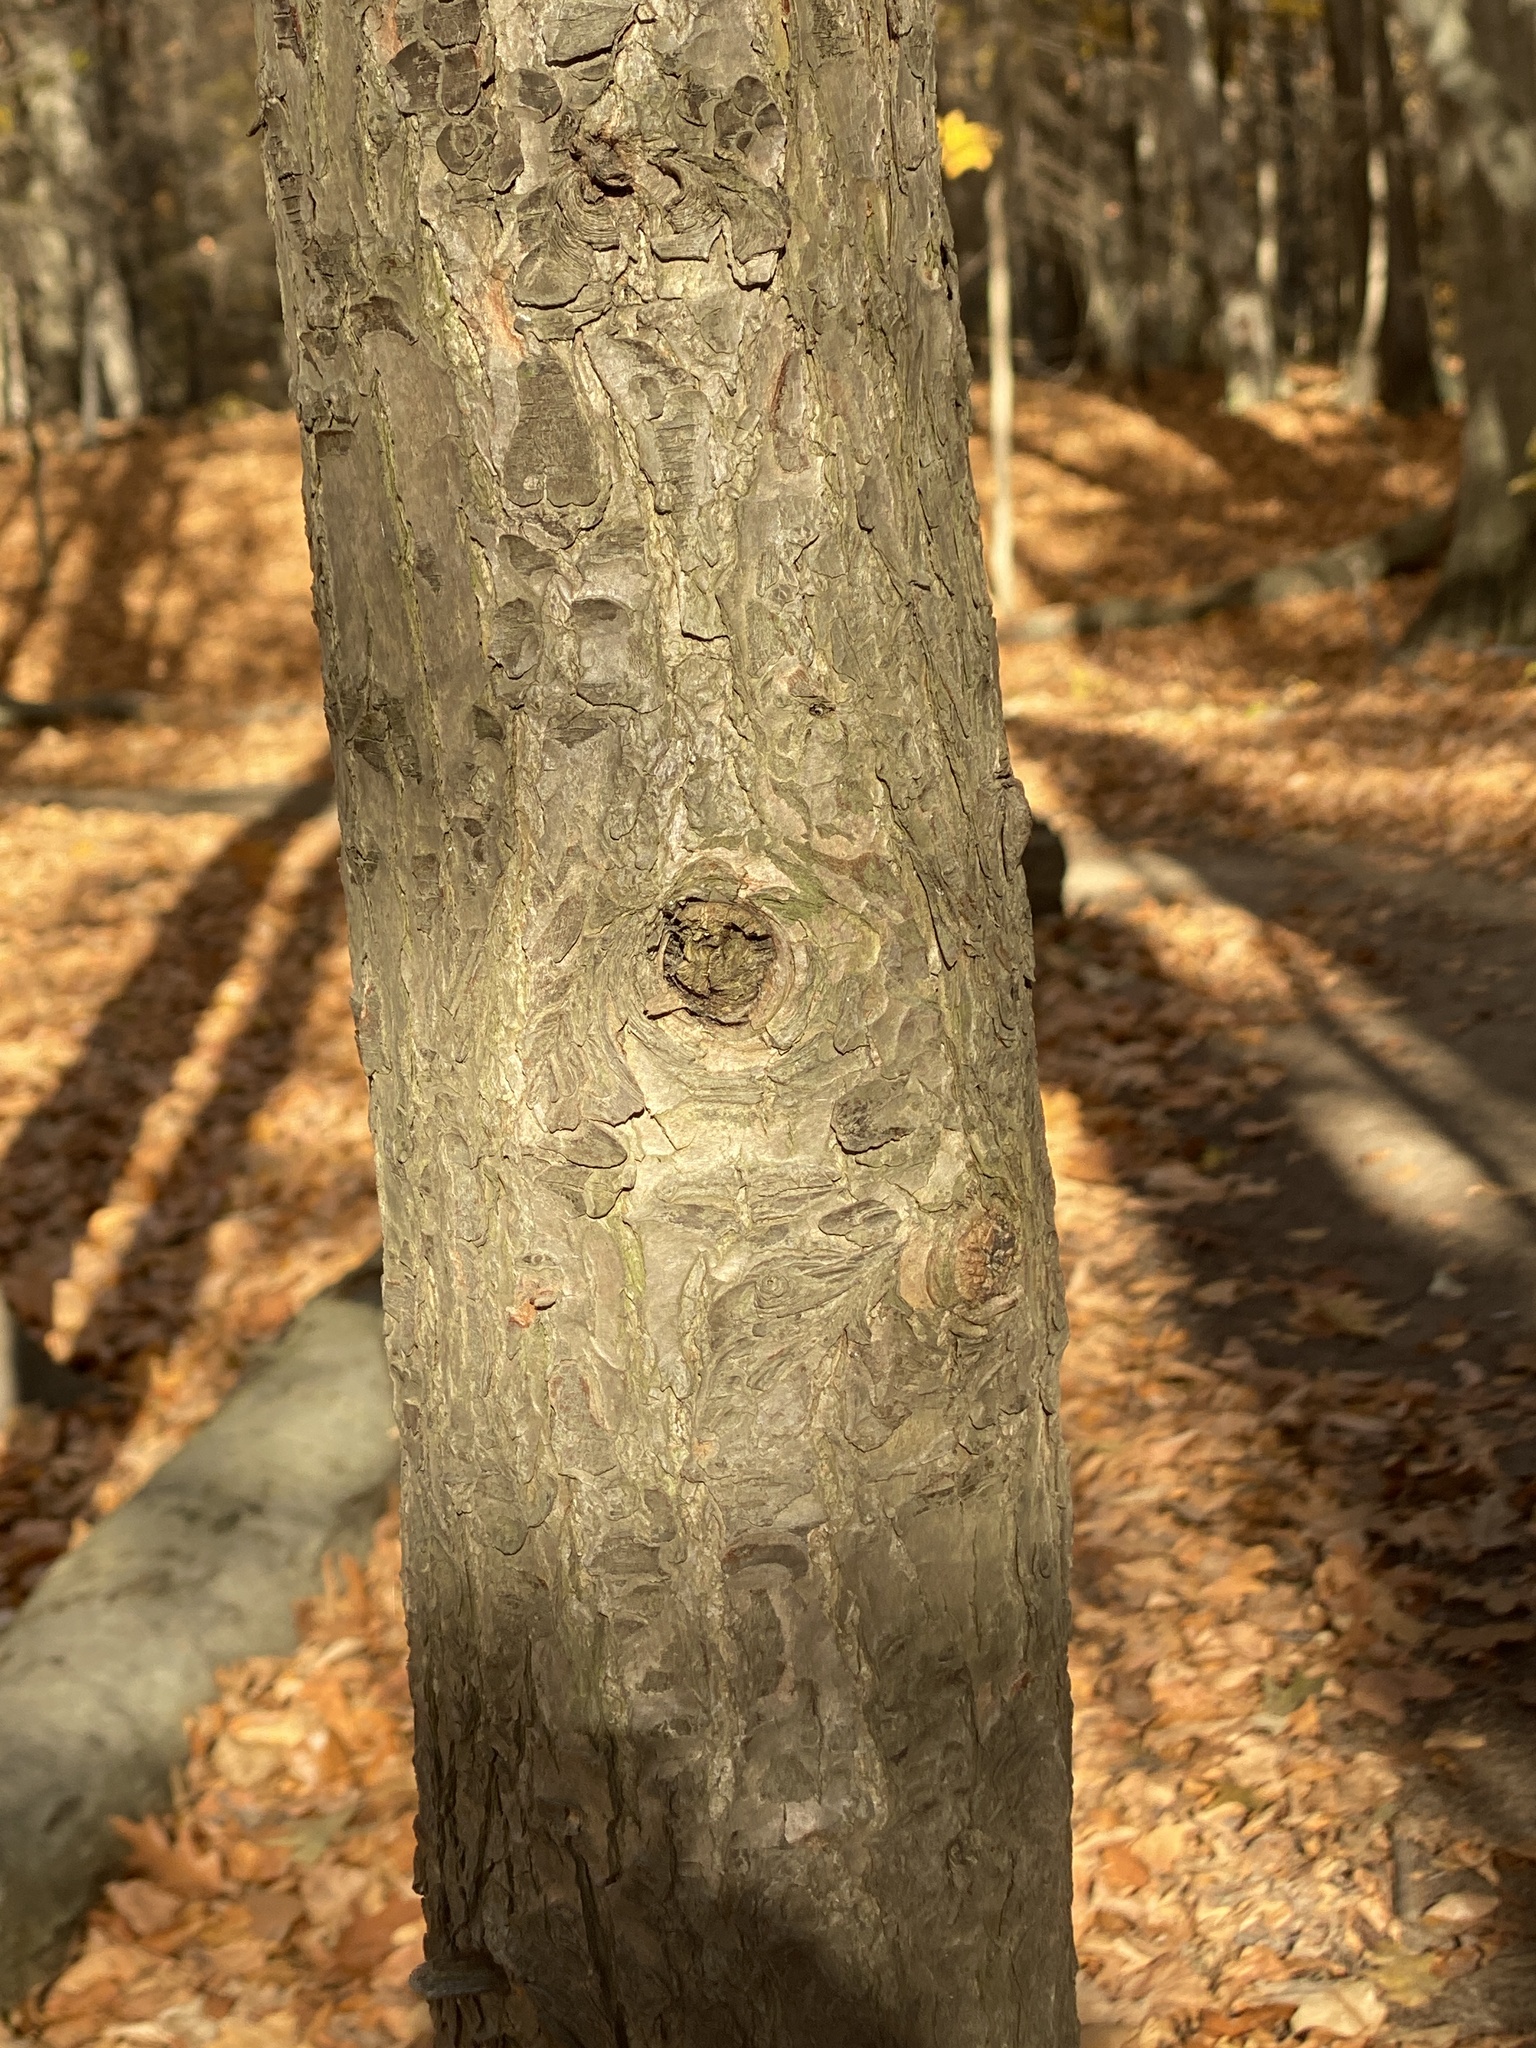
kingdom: Plantae
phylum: Tracheophyta
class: Pinopsida
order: Pinales
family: Pinaceae
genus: Tsuga
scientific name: Tsuga canadensis
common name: Eastern hemlock
